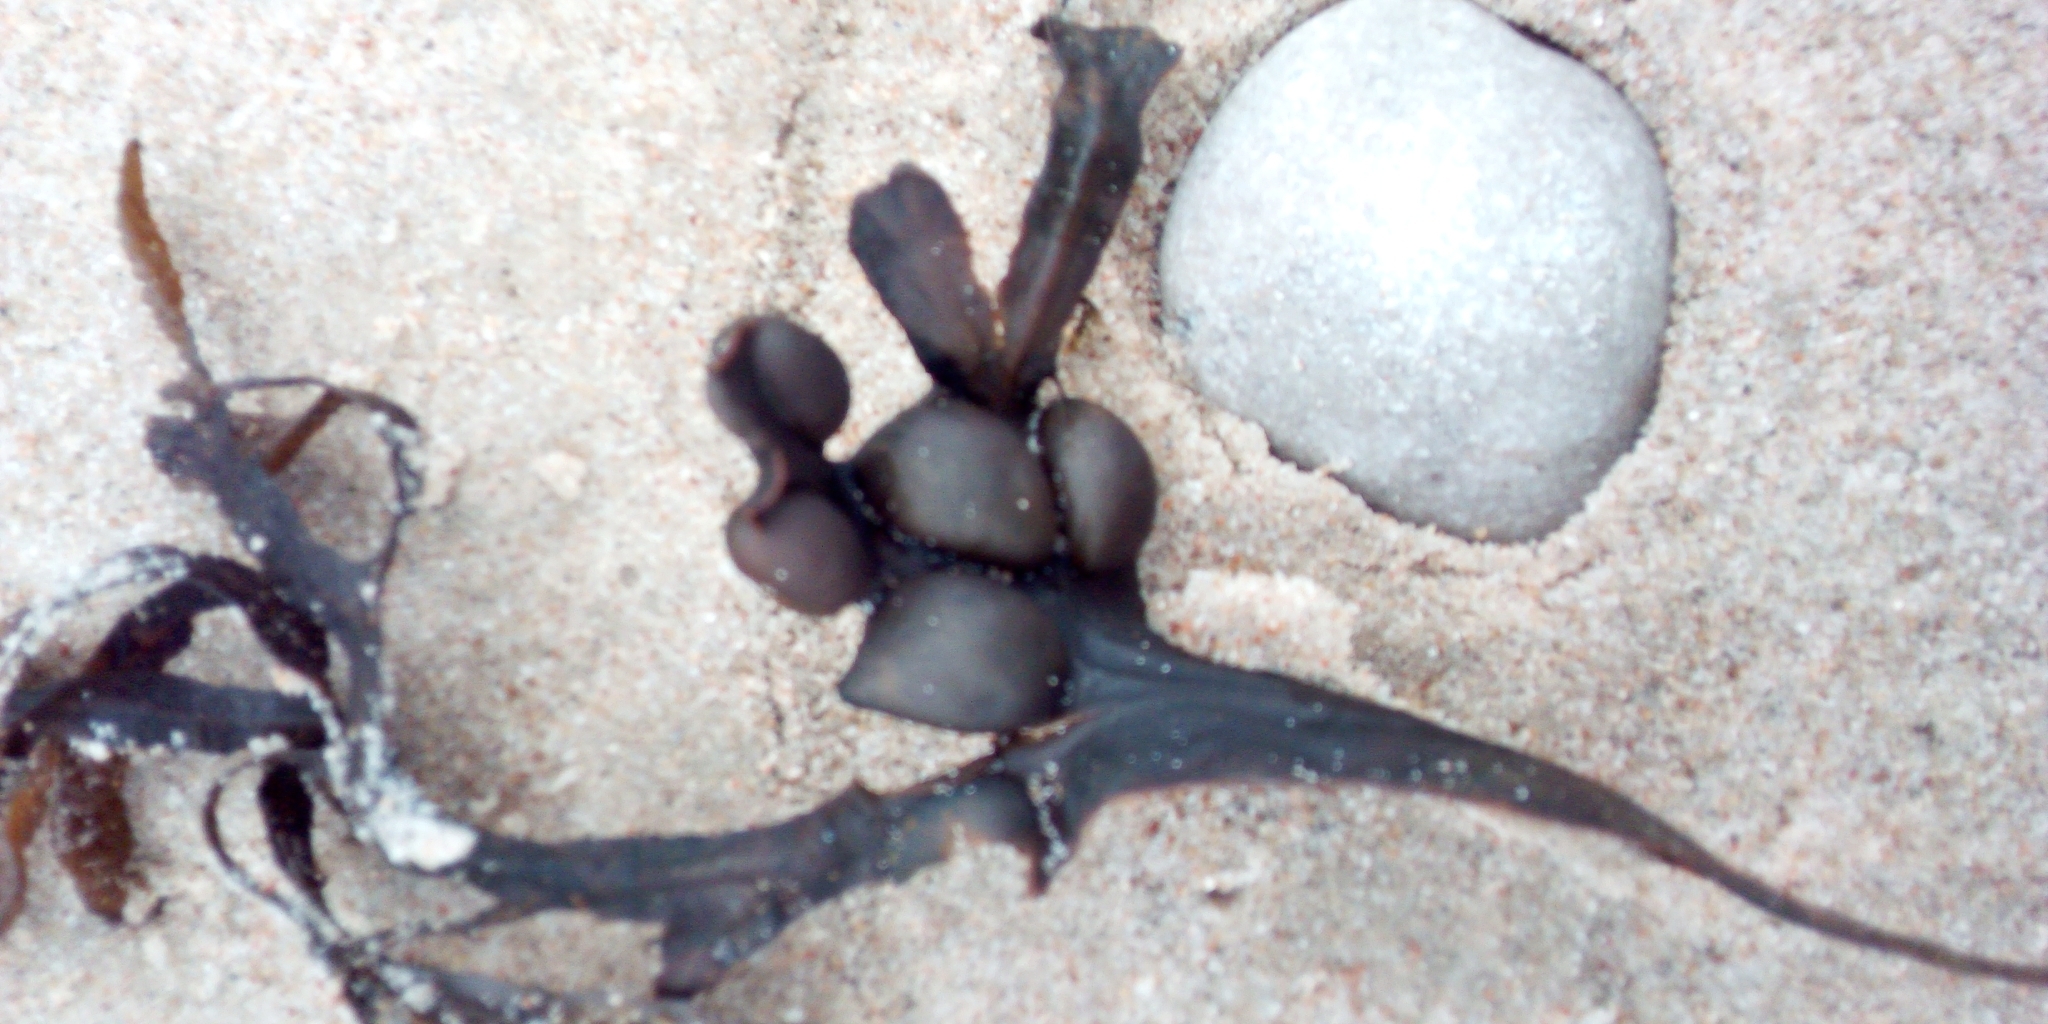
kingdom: Chromista
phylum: Ochrophyta
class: Phaeophyceae
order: Fucales
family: Fucaceae
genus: Fucus
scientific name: Fucus vesiculosus
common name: Bladder wrack
